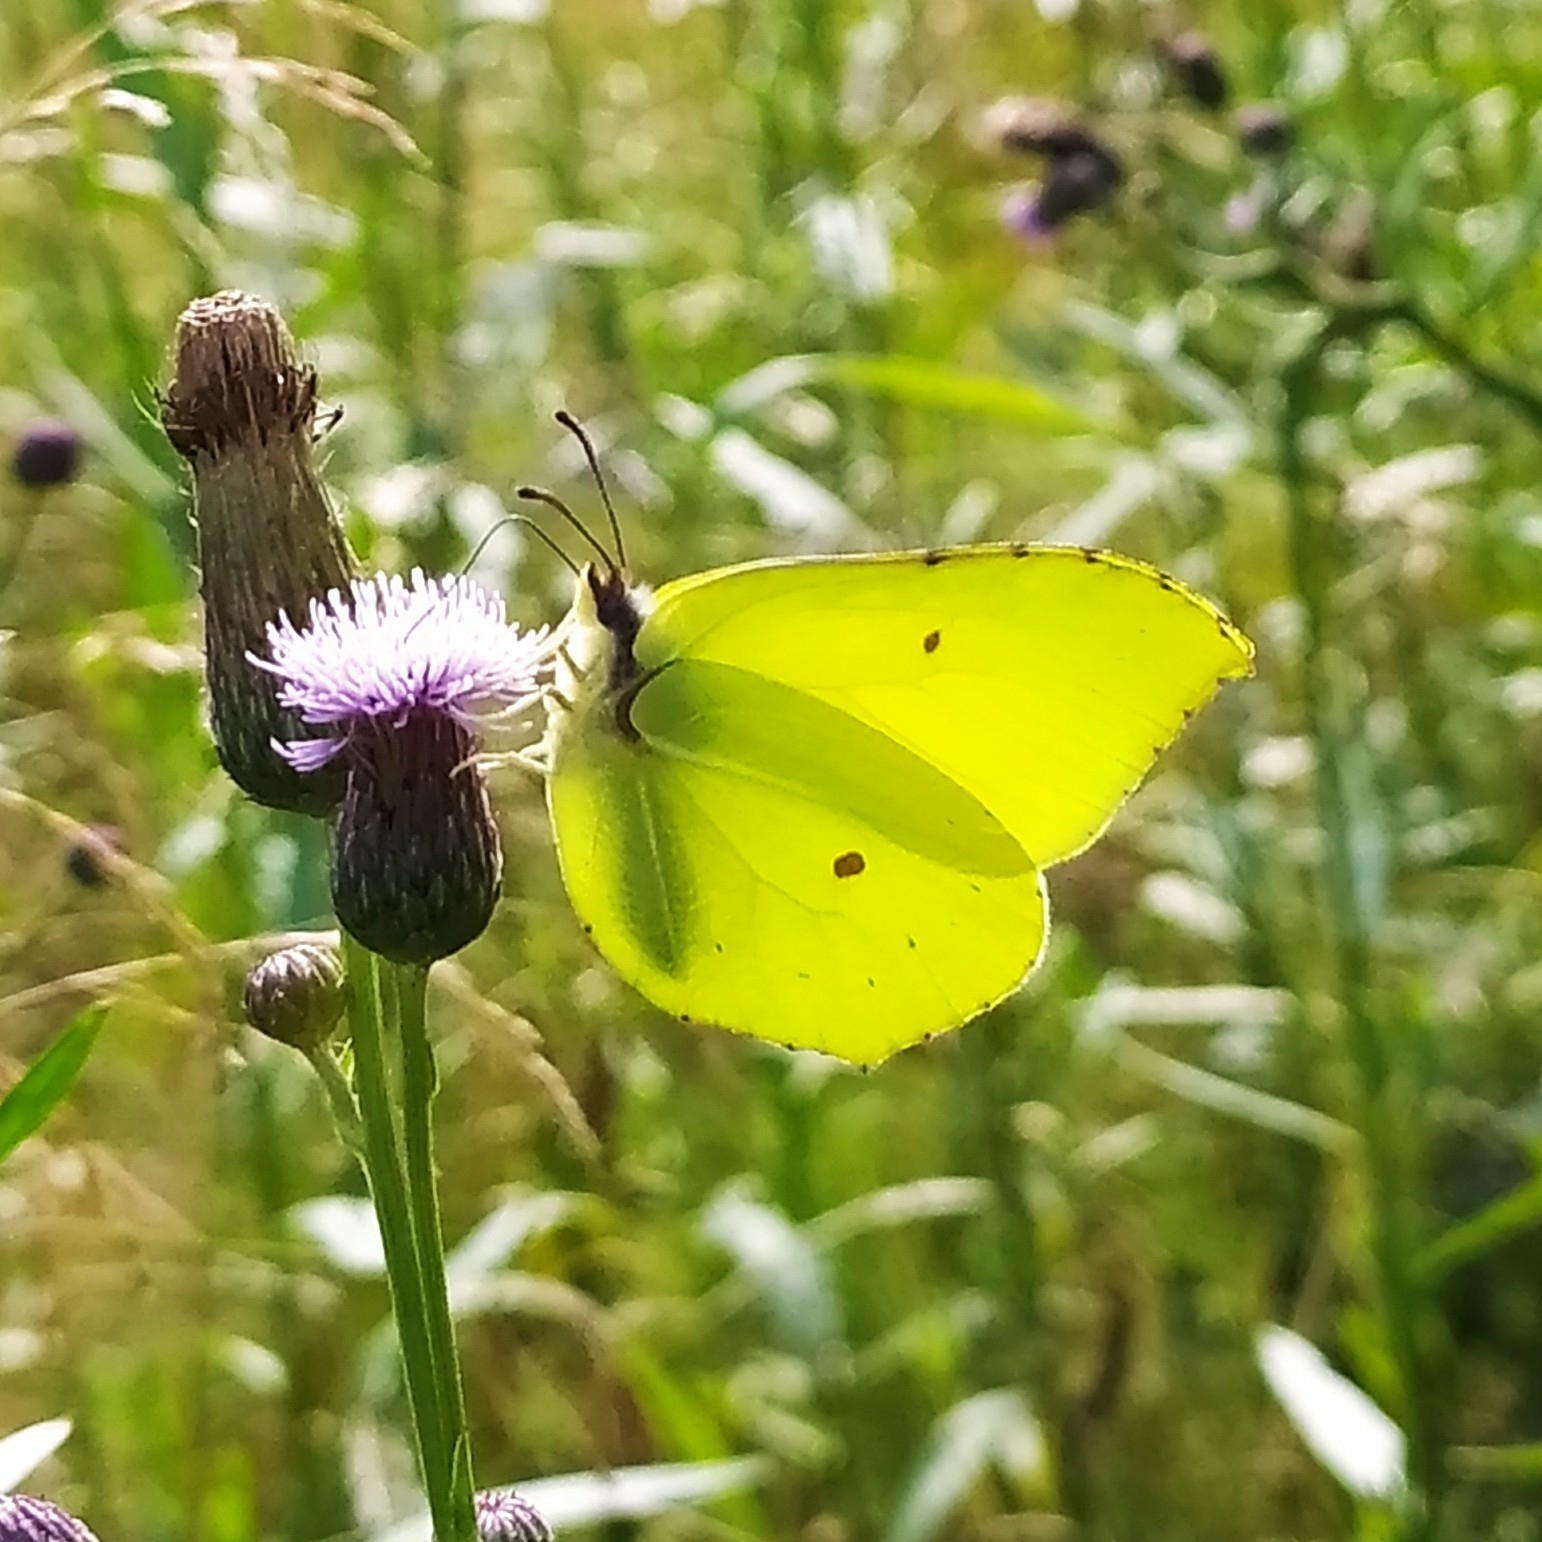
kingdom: Animalia
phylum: Arthropoda
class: Insecta
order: Lepidoptera
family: Pieridae
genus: Gonepteryx
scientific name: Gonepteryx rhamni
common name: Brimstone
